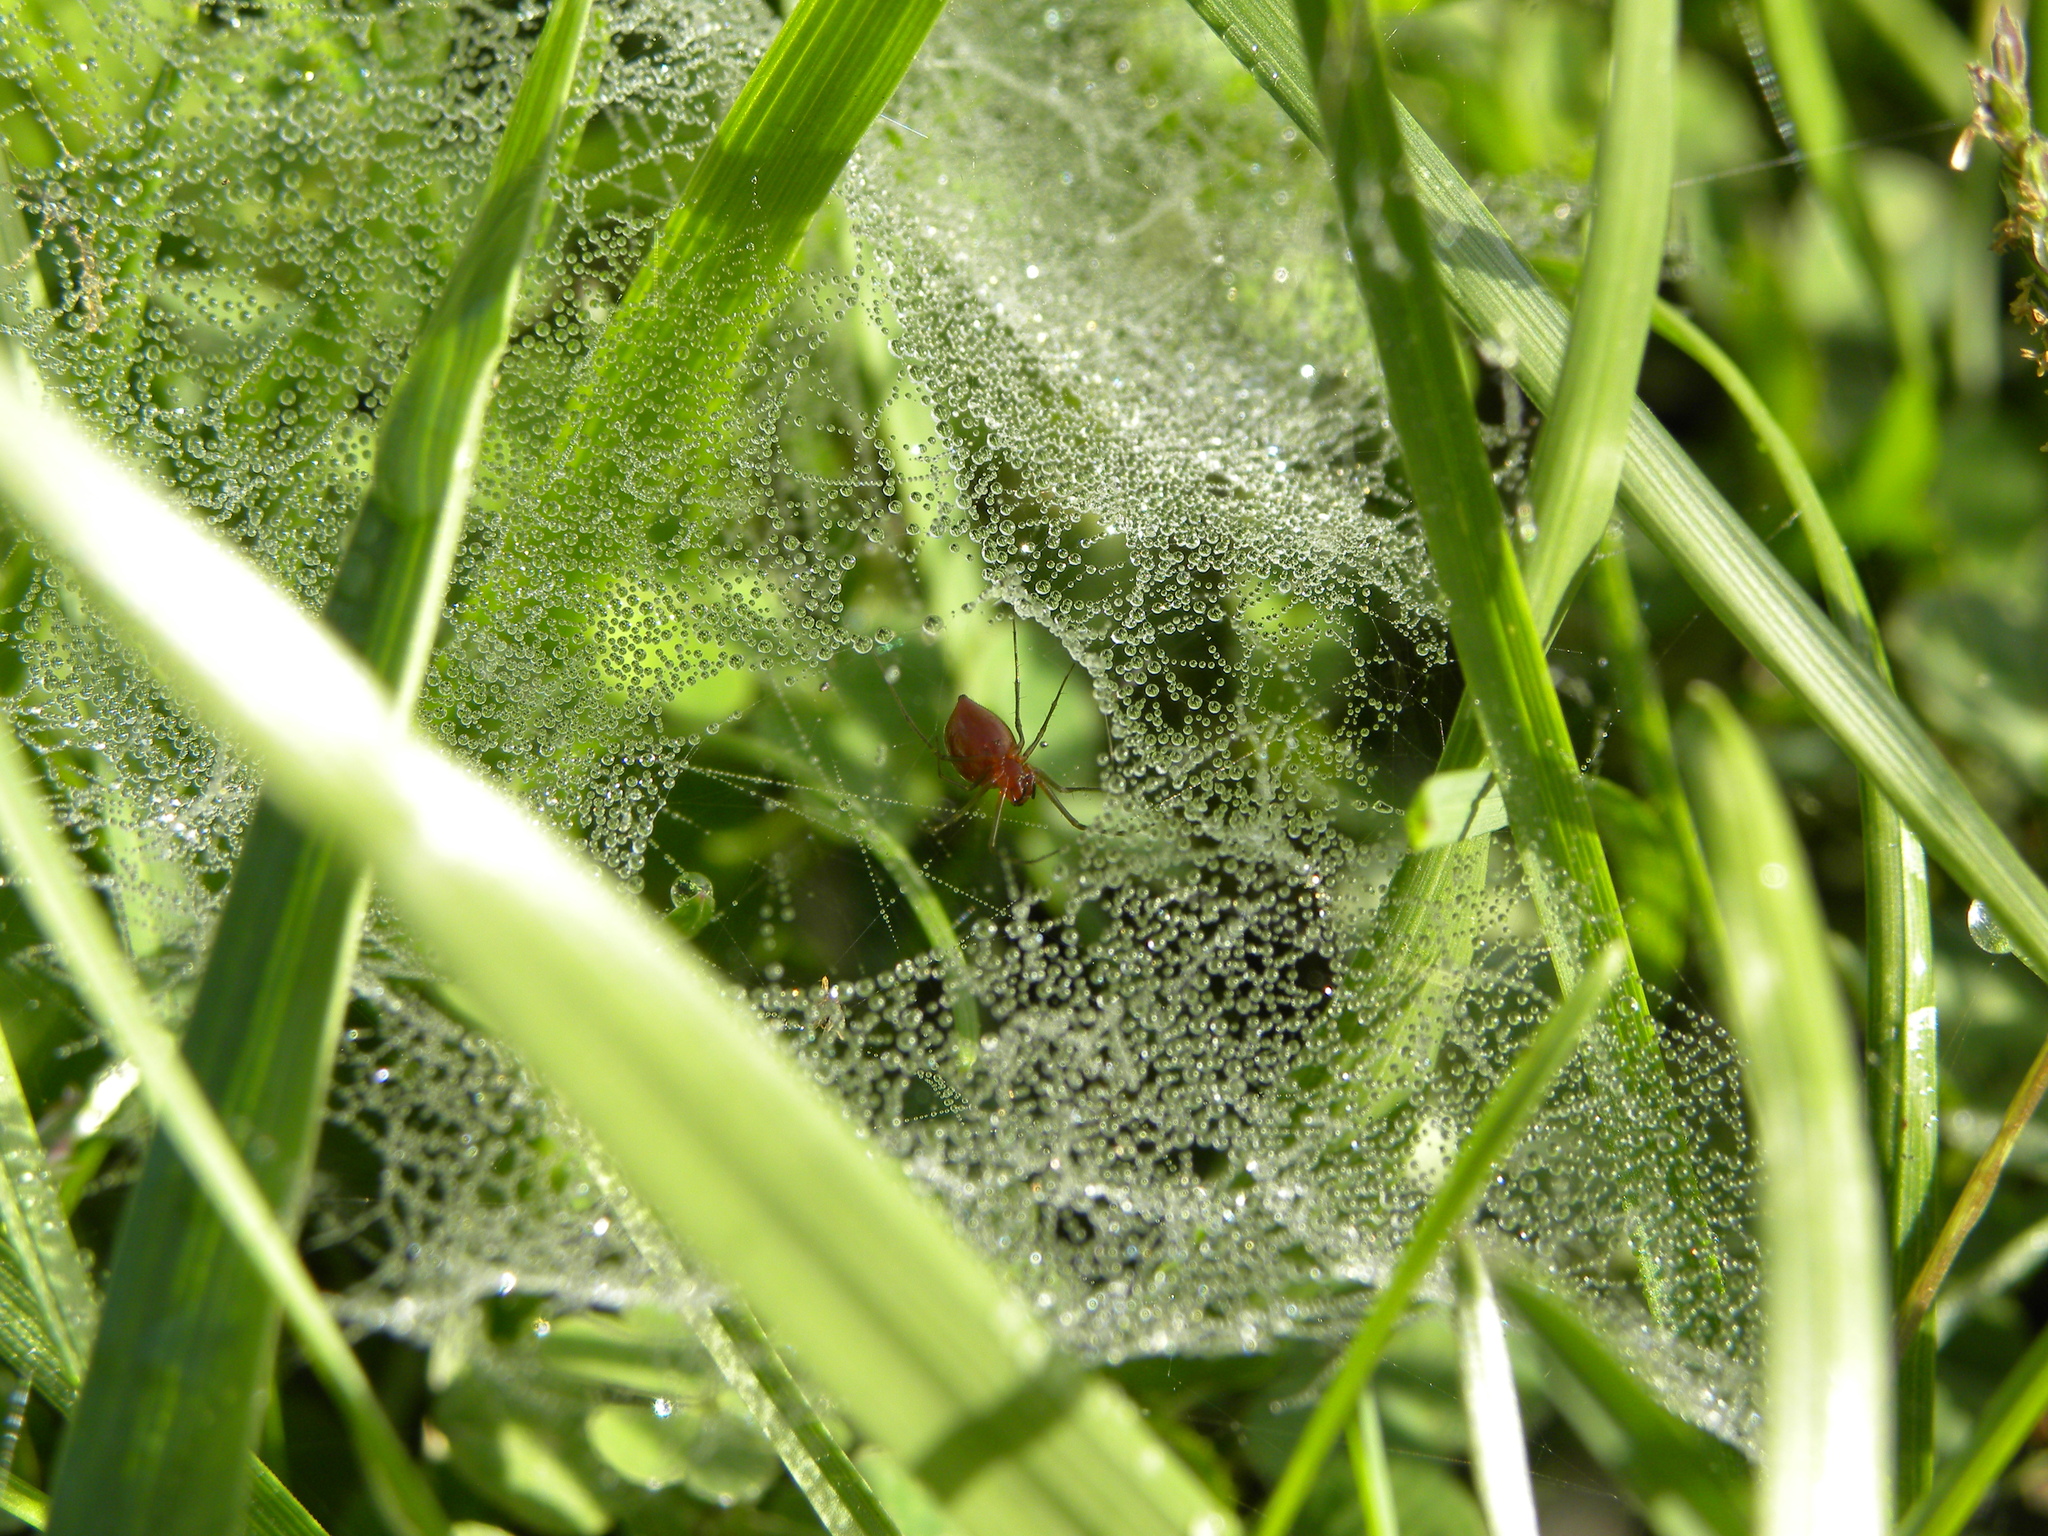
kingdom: Animalia
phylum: Arthropoda
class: Arachnida
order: Araneae
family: Linyphiidae
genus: Florinda
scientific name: Florinda coccinea
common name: Black-tailed red sheetweaver
